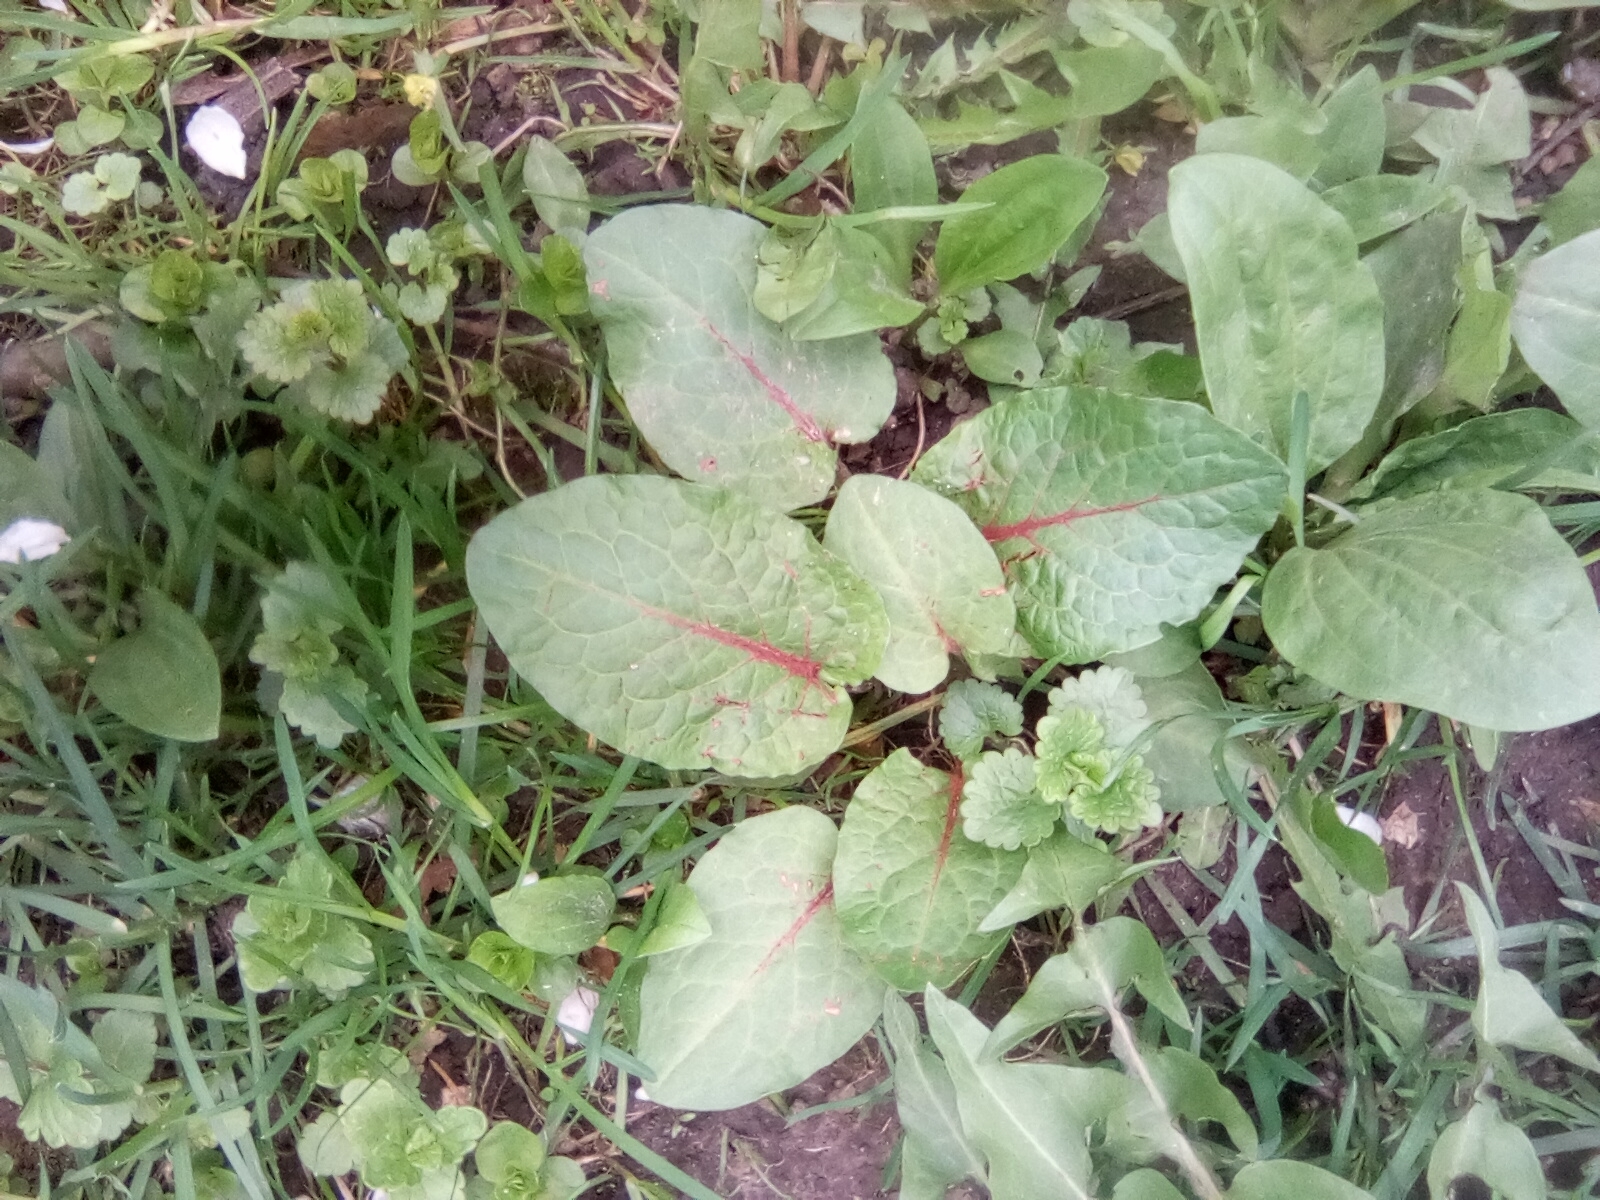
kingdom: Plantae
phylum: Tracheophyta
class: Magnoliopsida
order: Caryophyllales
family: Polygonaceae
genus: Rumex
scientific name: Rumex obtusifolius
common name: Bitter dock
